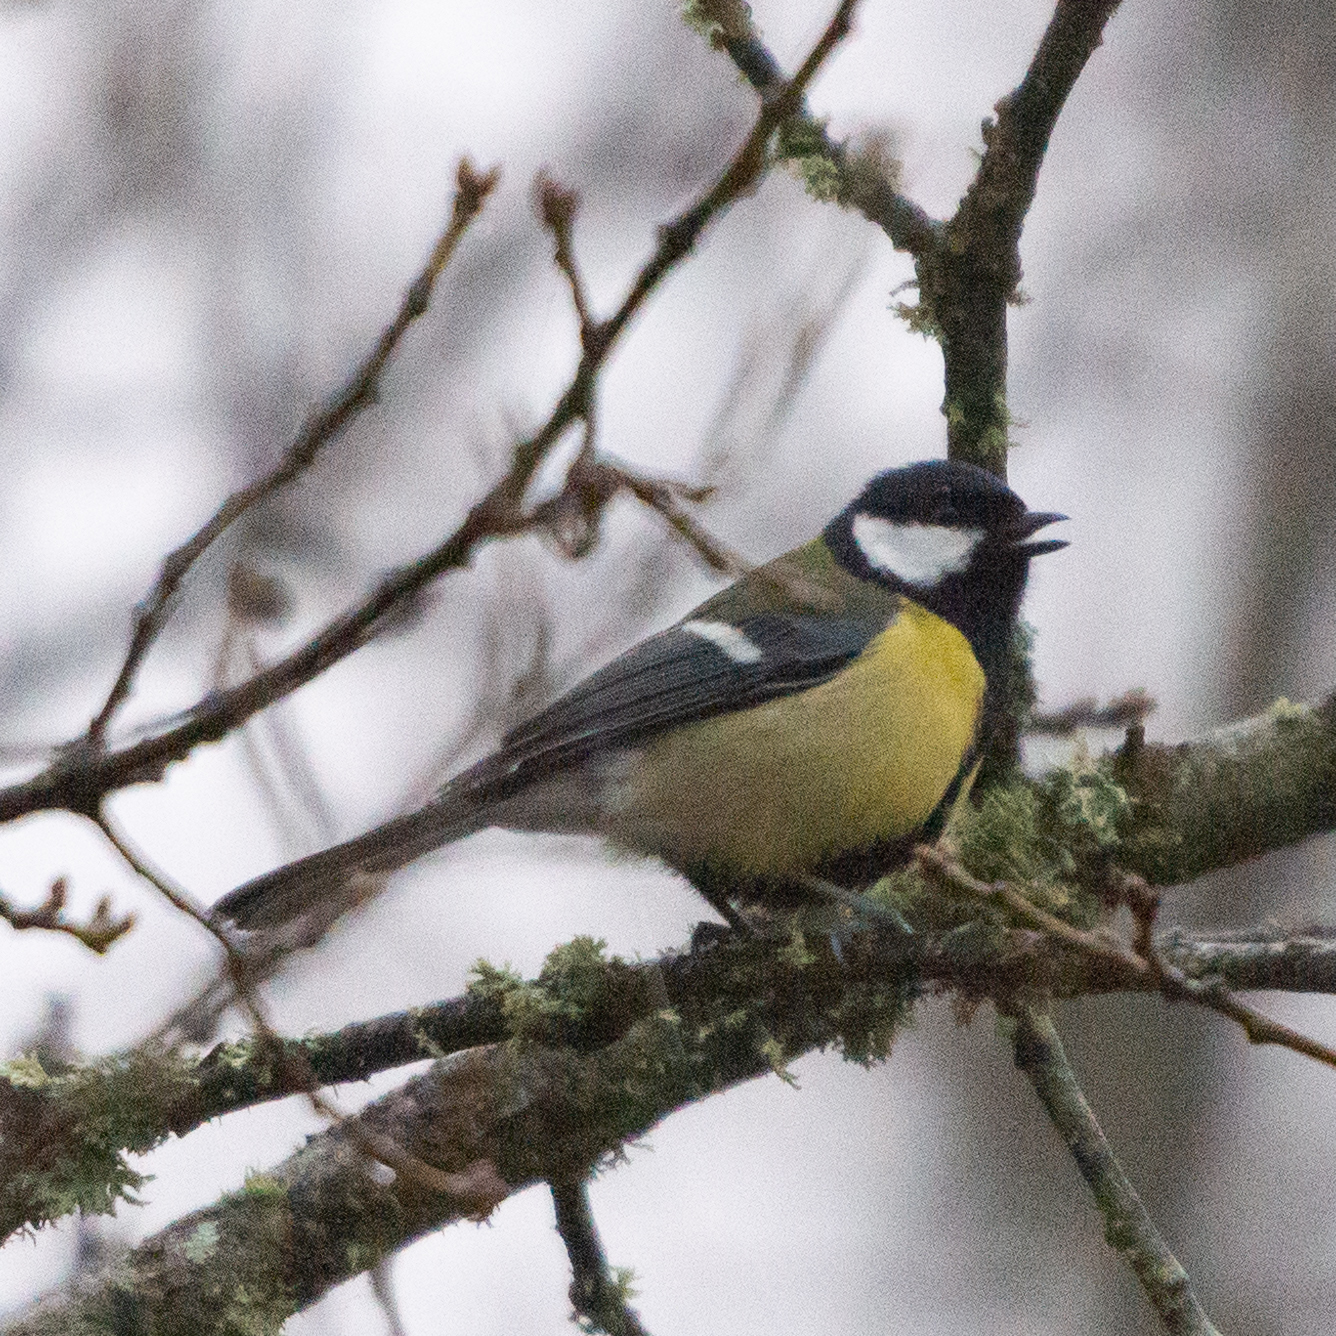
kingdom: Animalia
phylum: Chordata
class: Aves
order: Passeriformes
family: Paridae
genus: Parus
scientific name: Parus major
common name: Great tit
